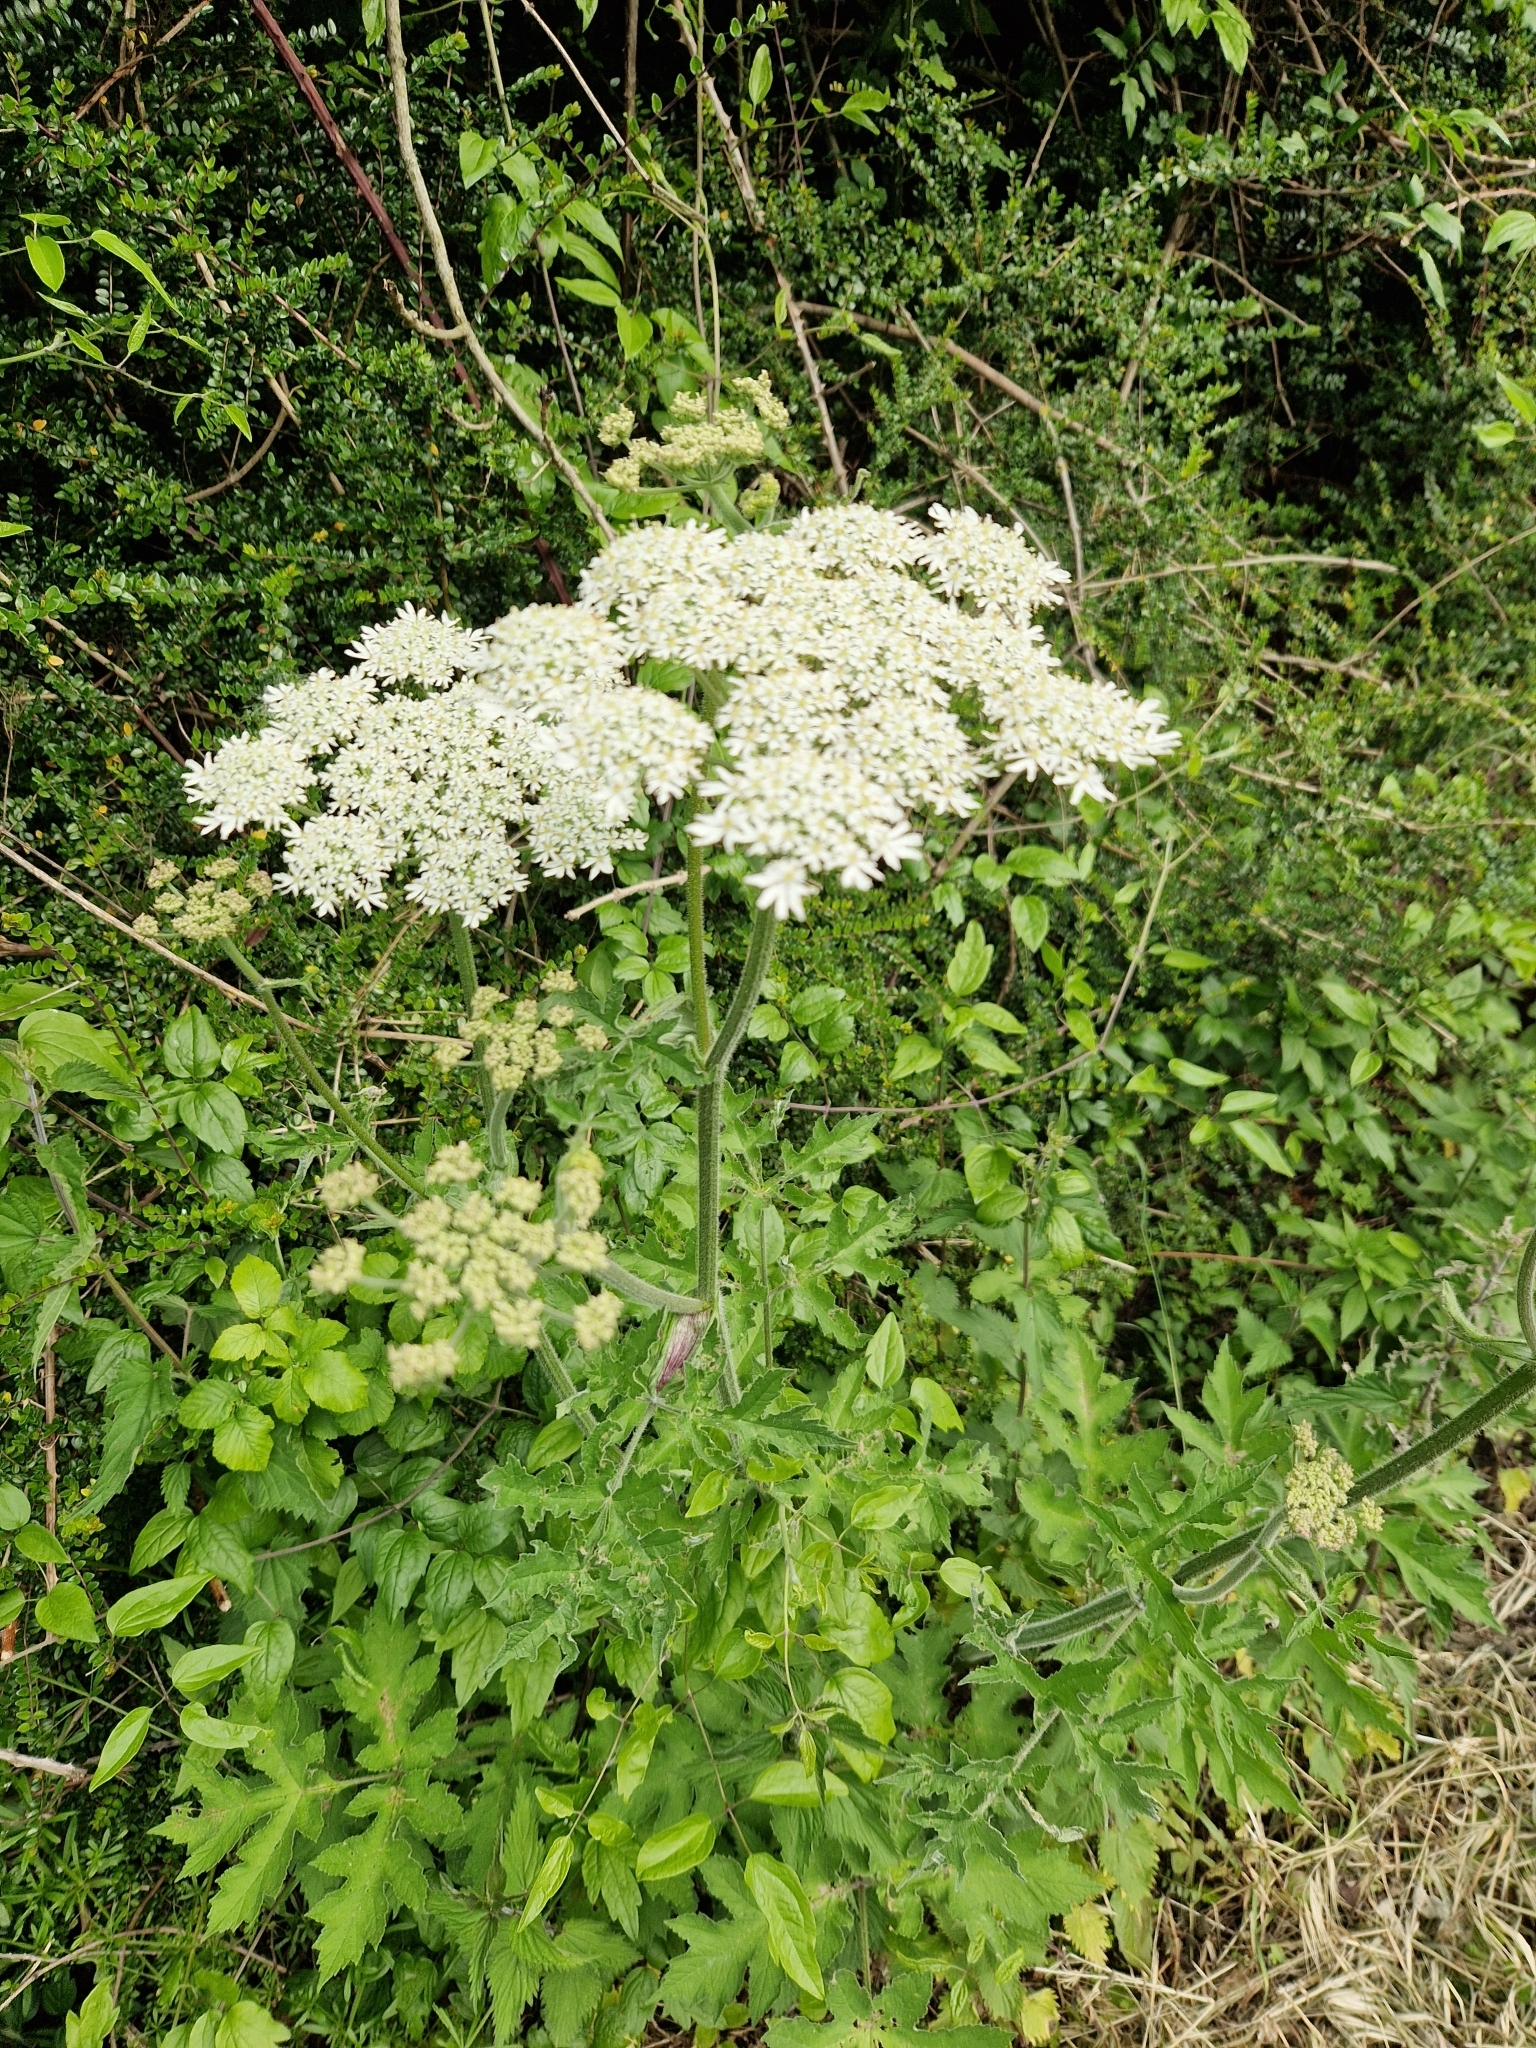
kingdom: Plantae
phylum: Tracheophyta
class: Magnoliopsida
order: Apiales
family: Apiaceae
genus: Heracleum
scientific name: Heracleum sphondylium
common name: Hogweed
